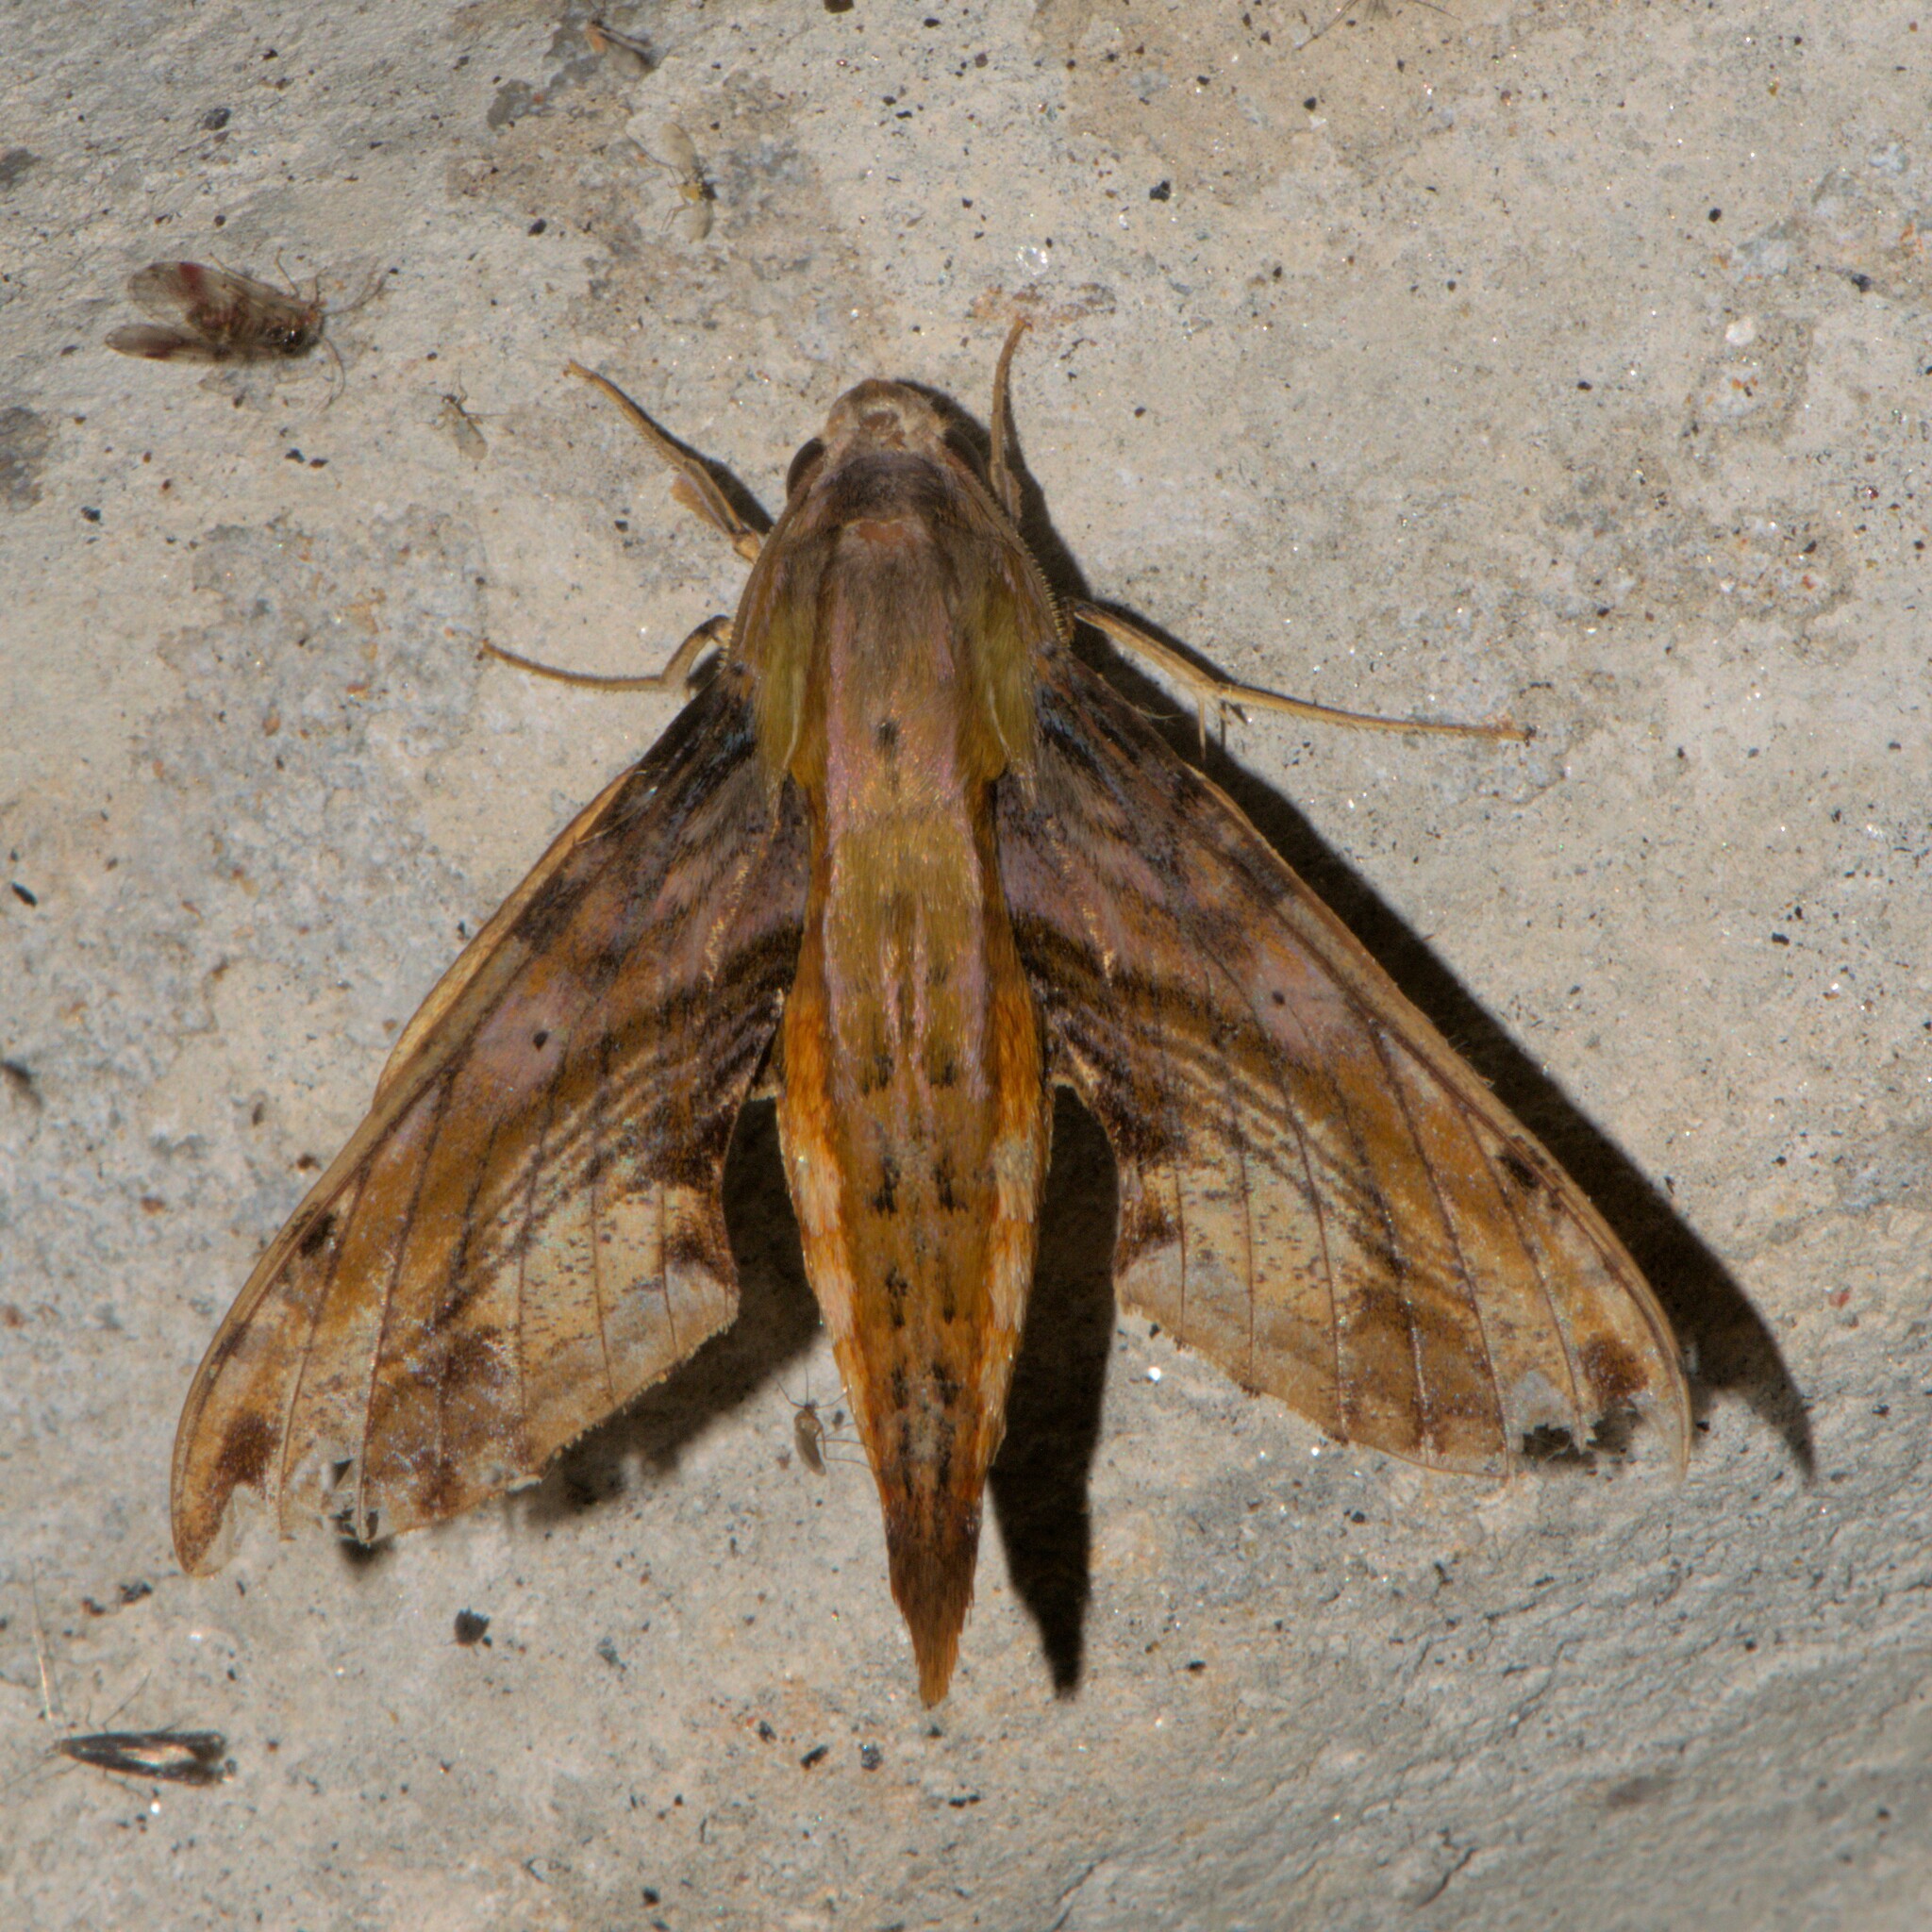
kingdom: Animalia
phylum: Arthropoda
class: Insecta
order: Lepidoptera
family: Sphingidae
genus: Eupanacra
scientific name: Eupanacra metallica
